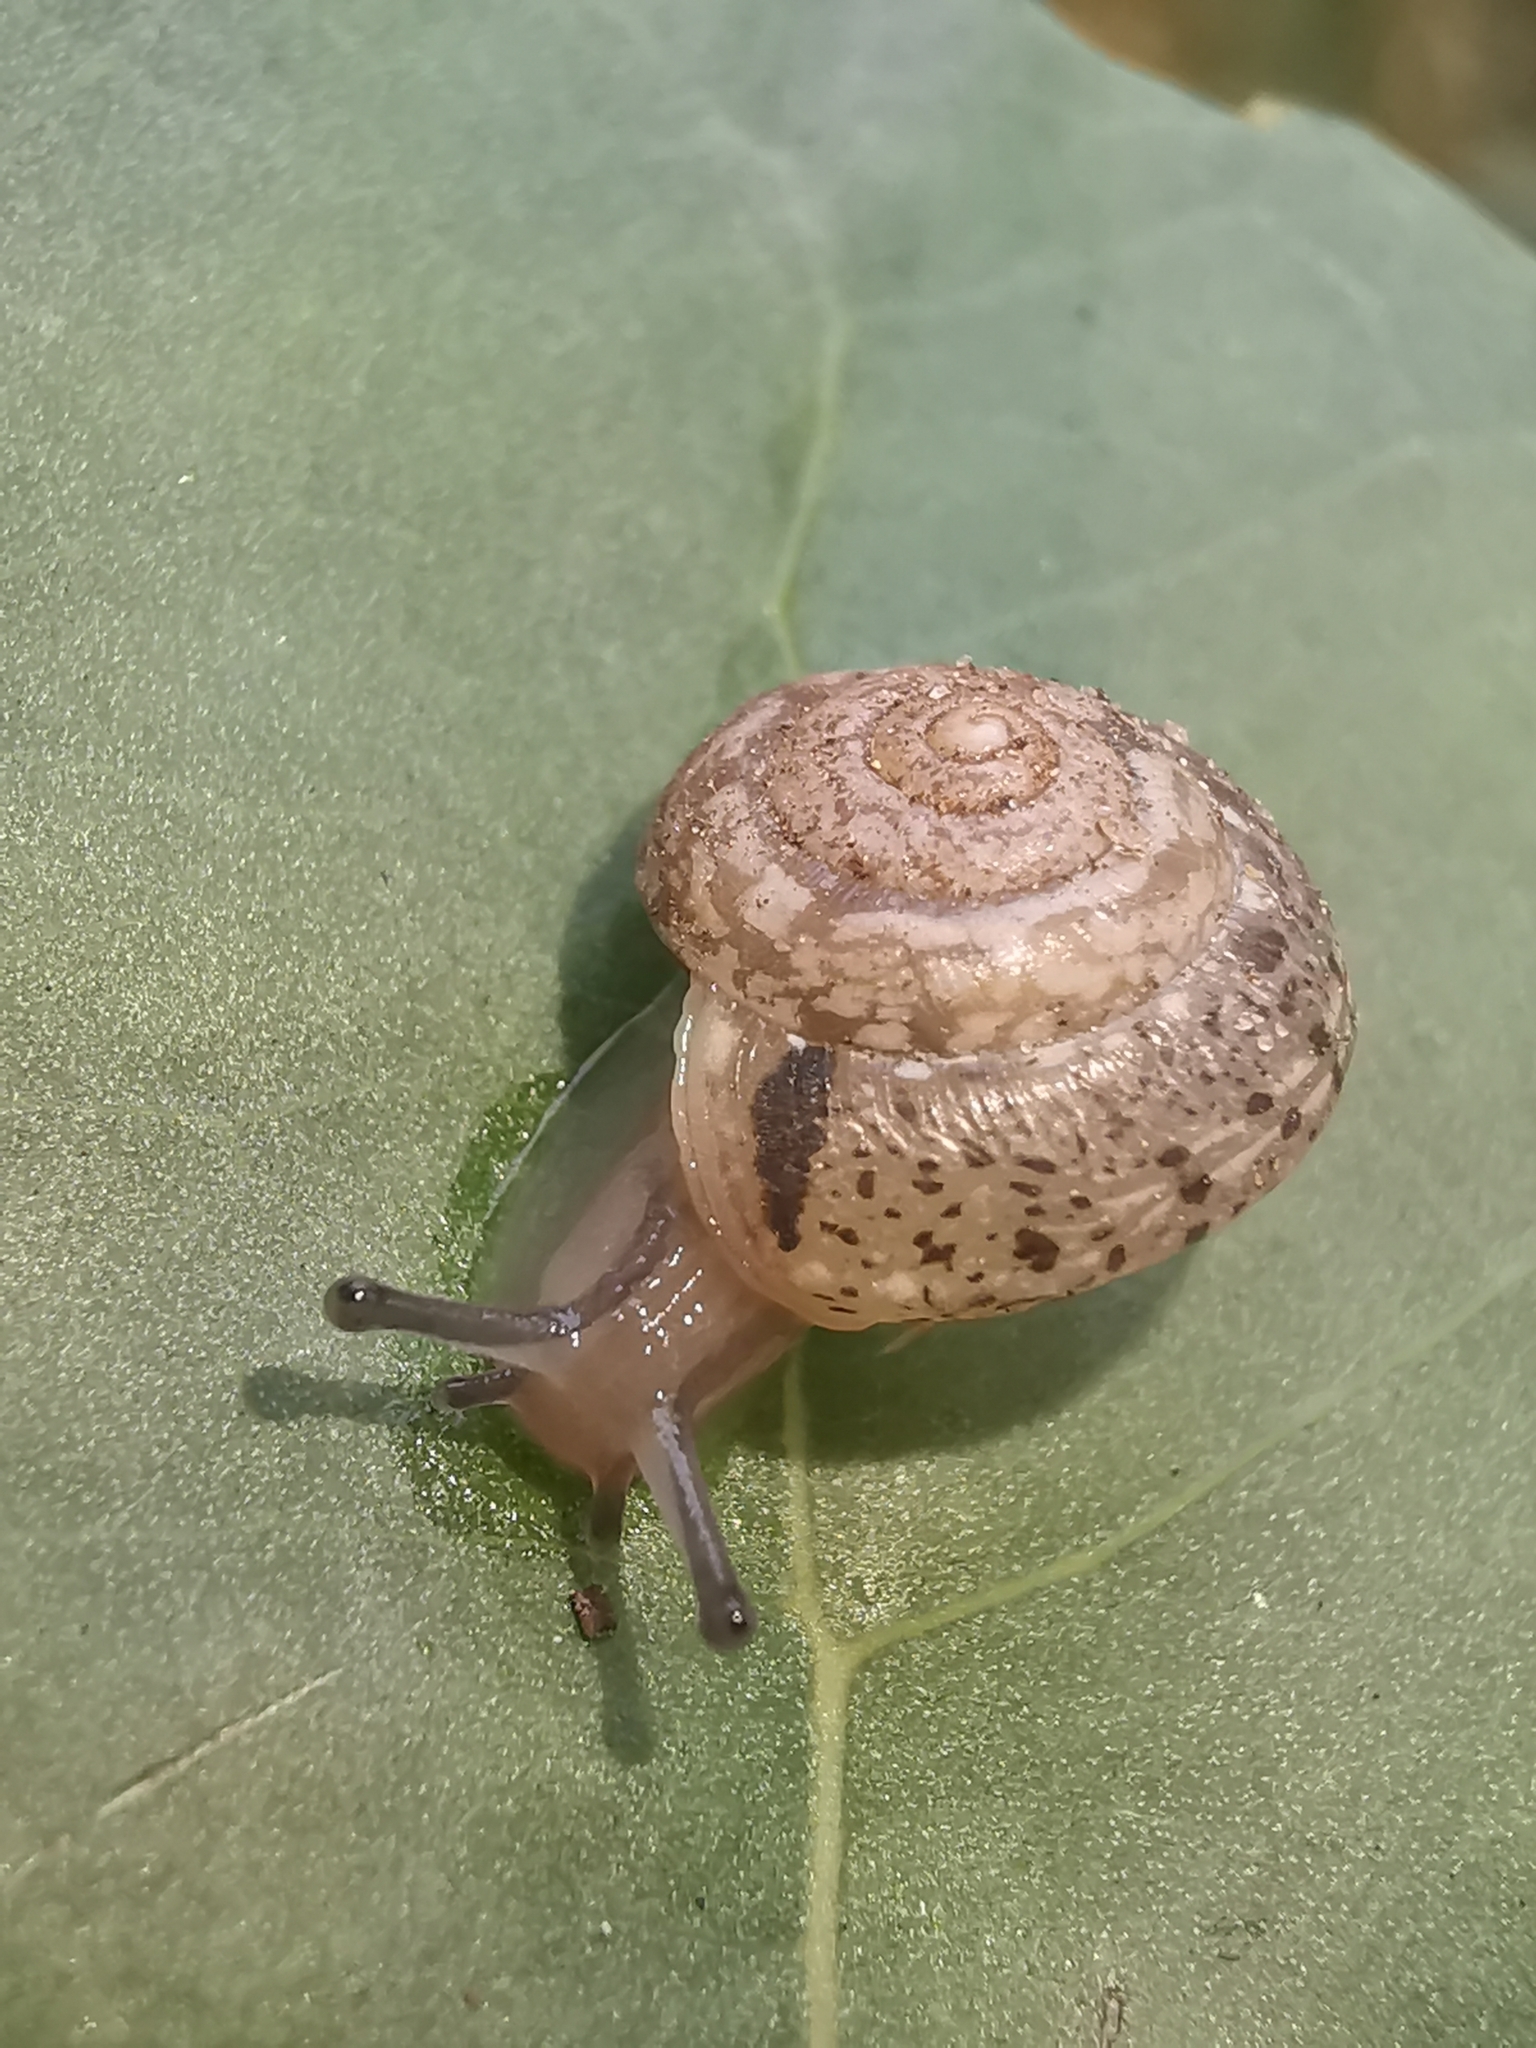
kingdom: Animalia
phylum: Mollusca
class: Gastropoda
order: Stylommatophora
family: Hygromiidae
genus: Hygromia
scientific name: Hygromia cinctella
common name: Girdled snail
